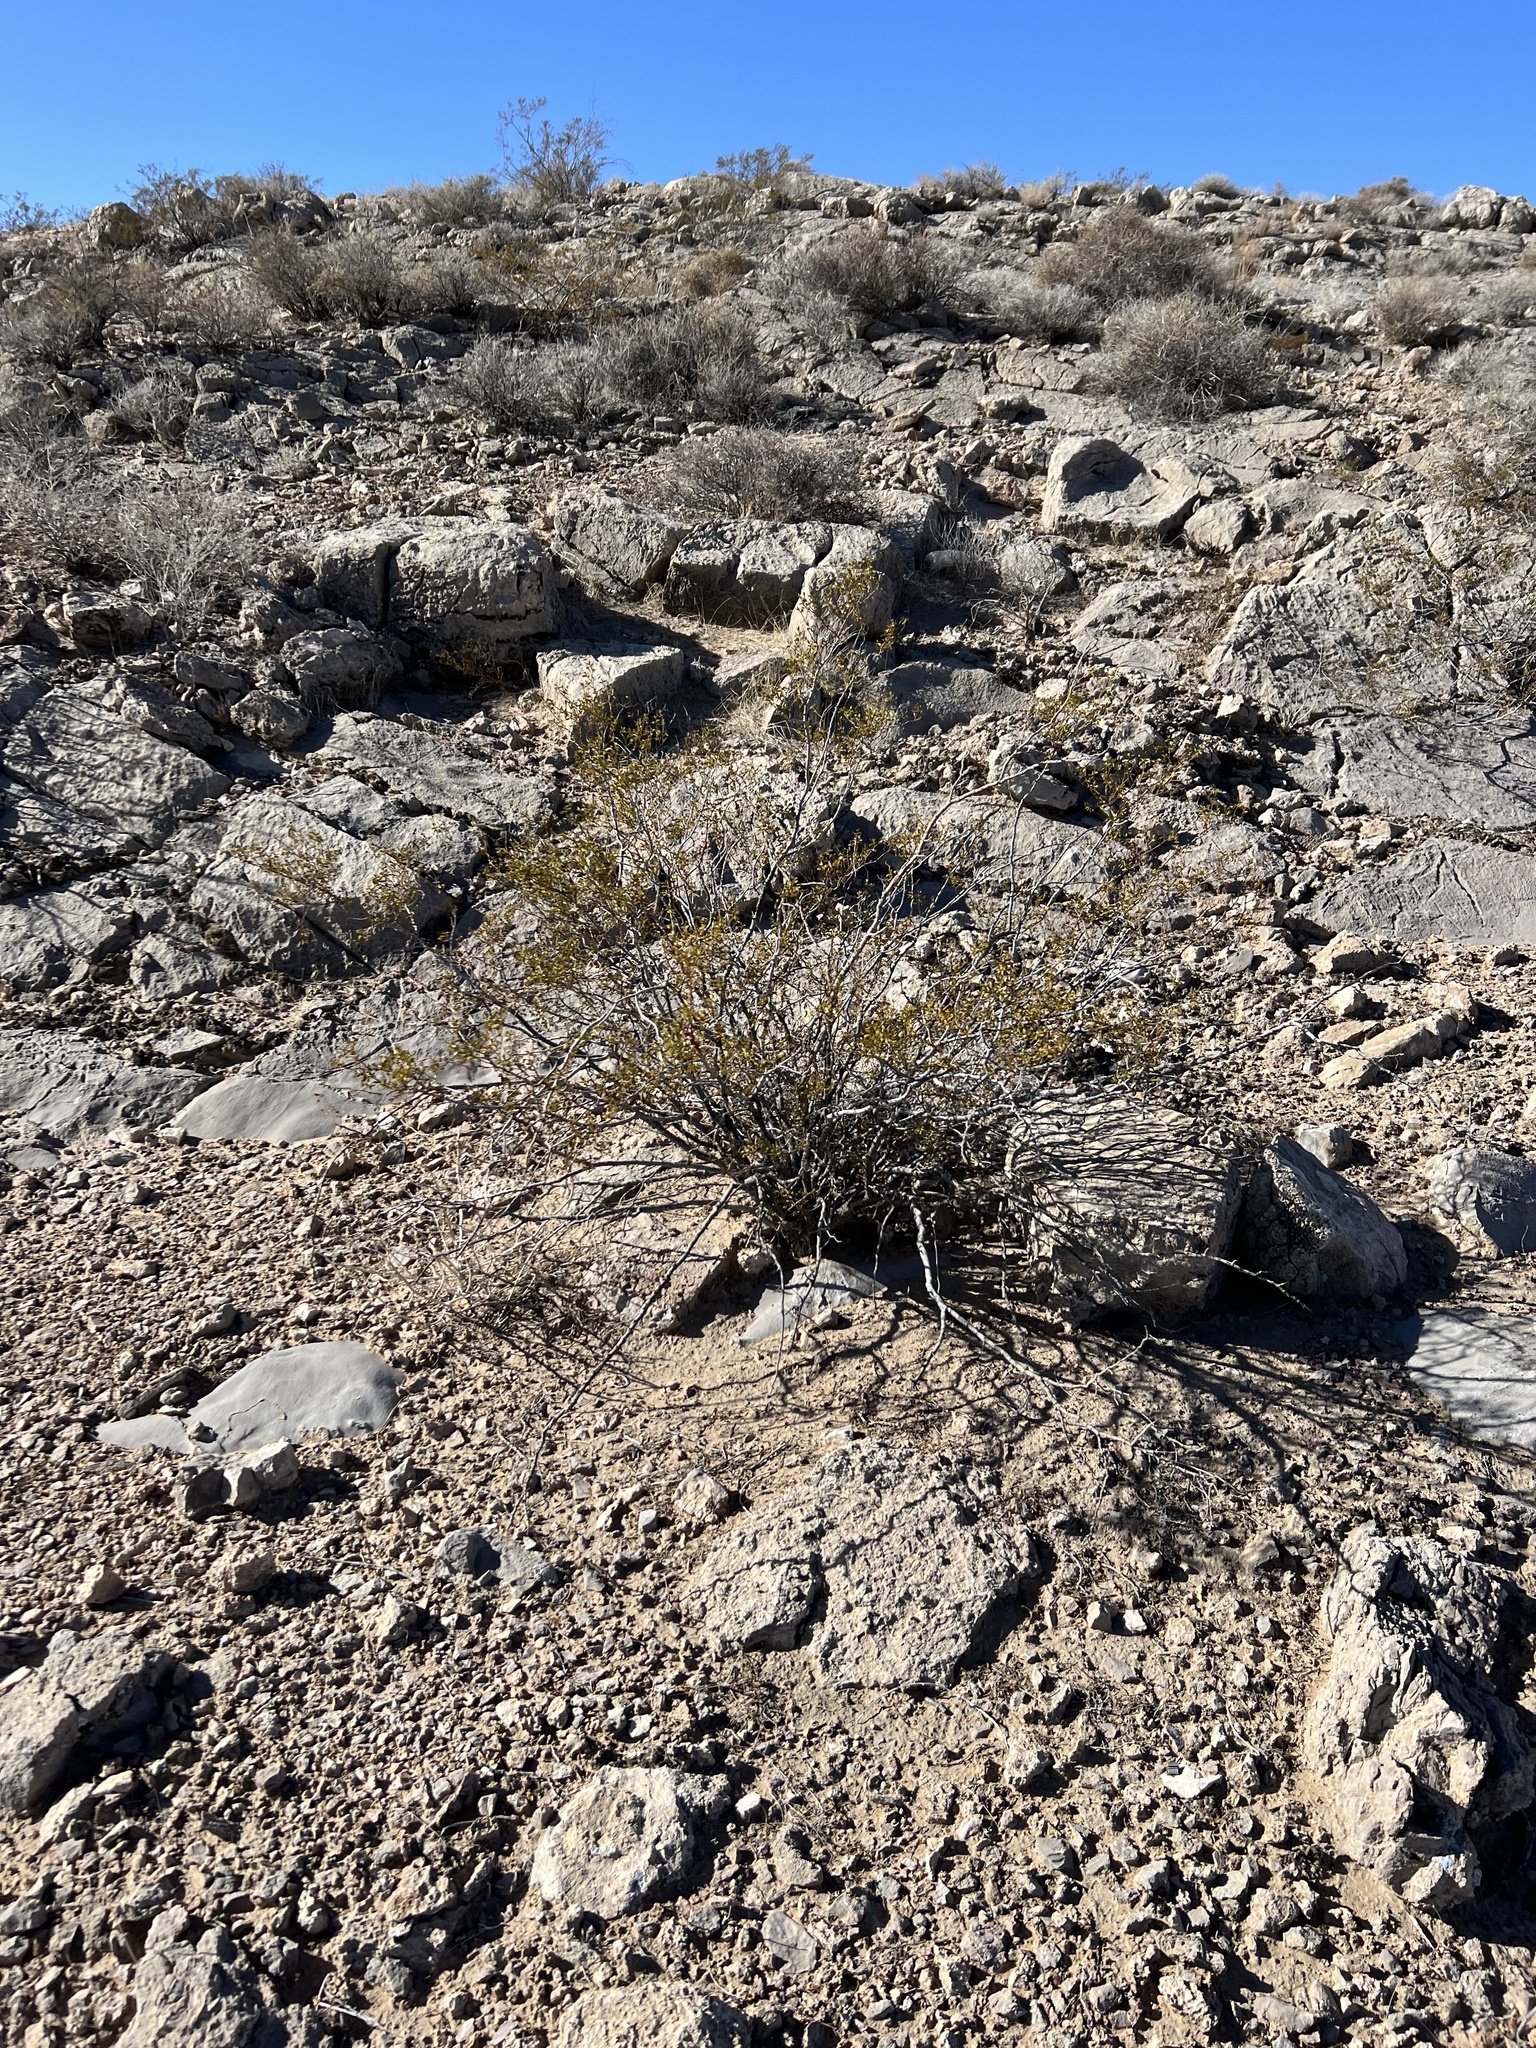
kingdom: Plantae
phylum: Tracheophyta
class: Magnoliopsida
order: Zygophyllales
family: Zygophyllaceae
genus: Larrea
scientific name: Larrea tridentata
